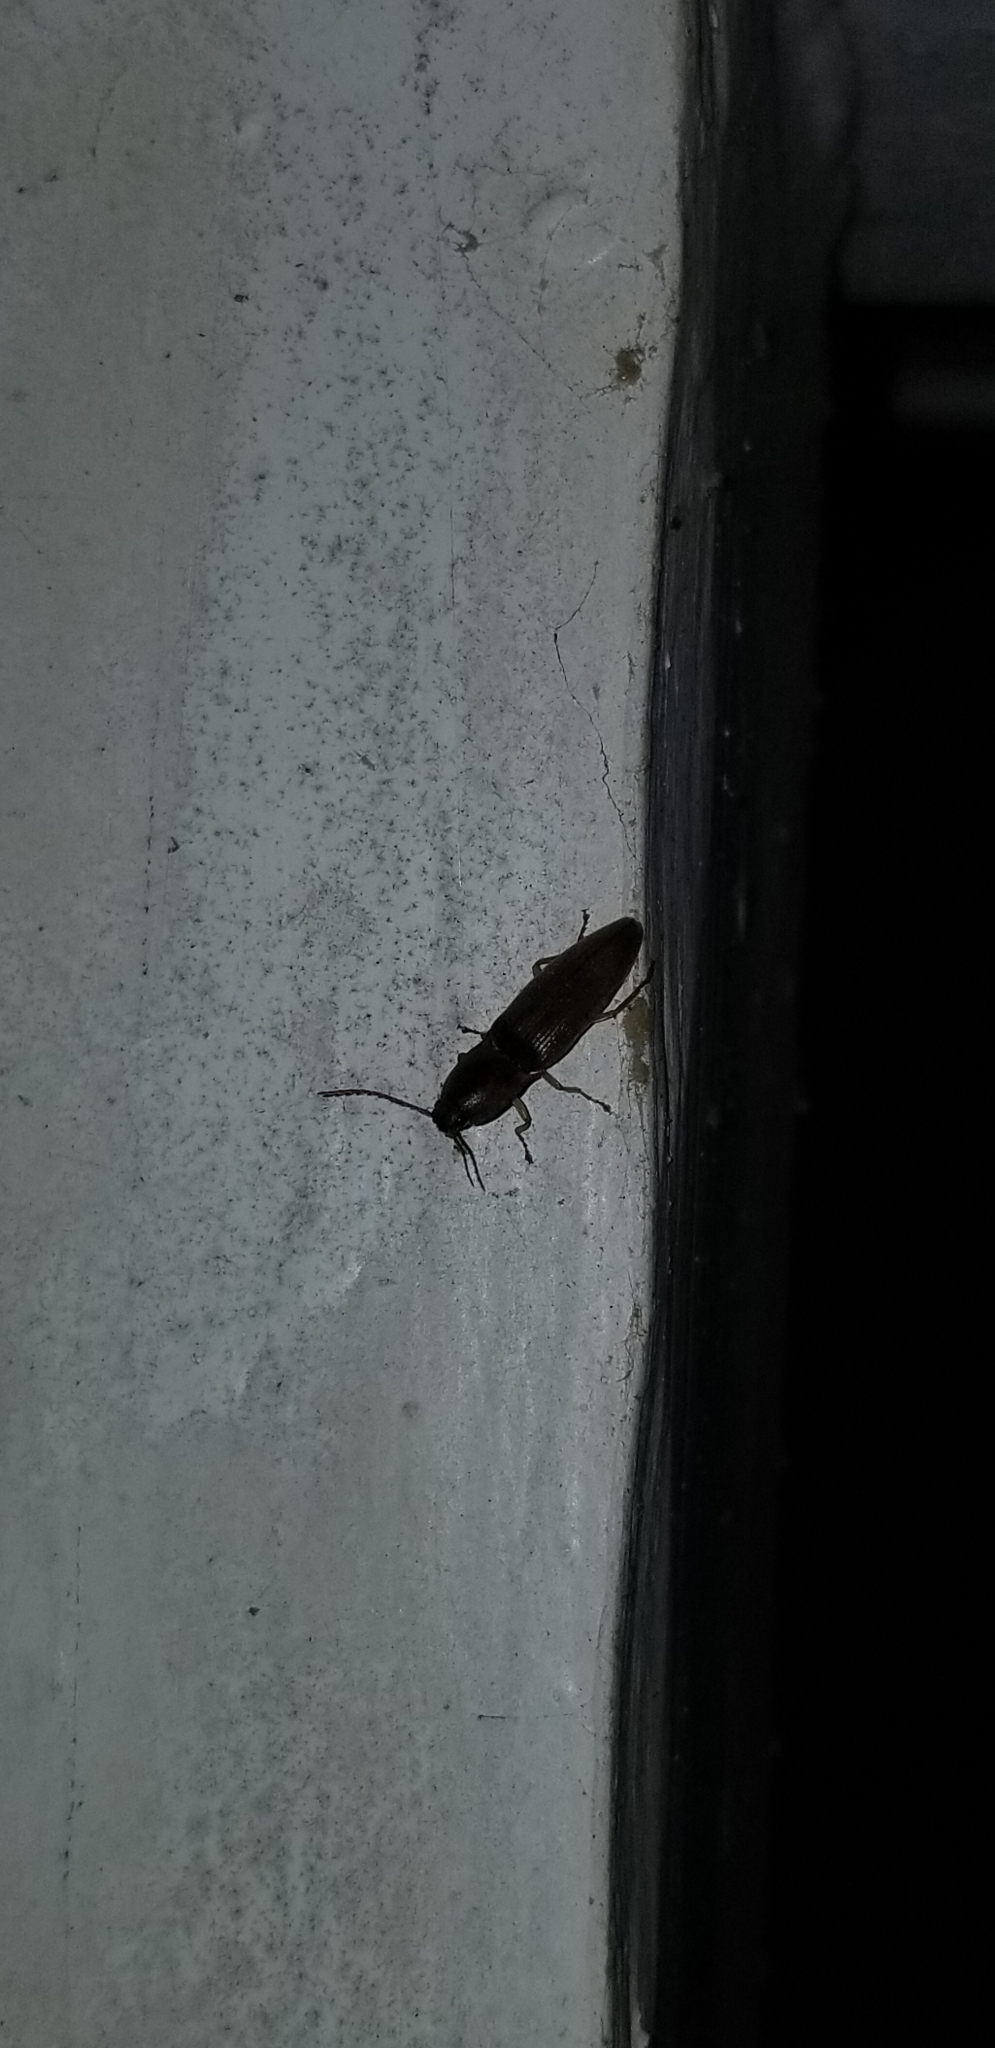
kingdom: Animalia
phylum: Arthropoda
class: Insecta
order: Coleoptera
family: Elateridae
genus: Monocrepidius
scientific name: Monocrepidius lividus
